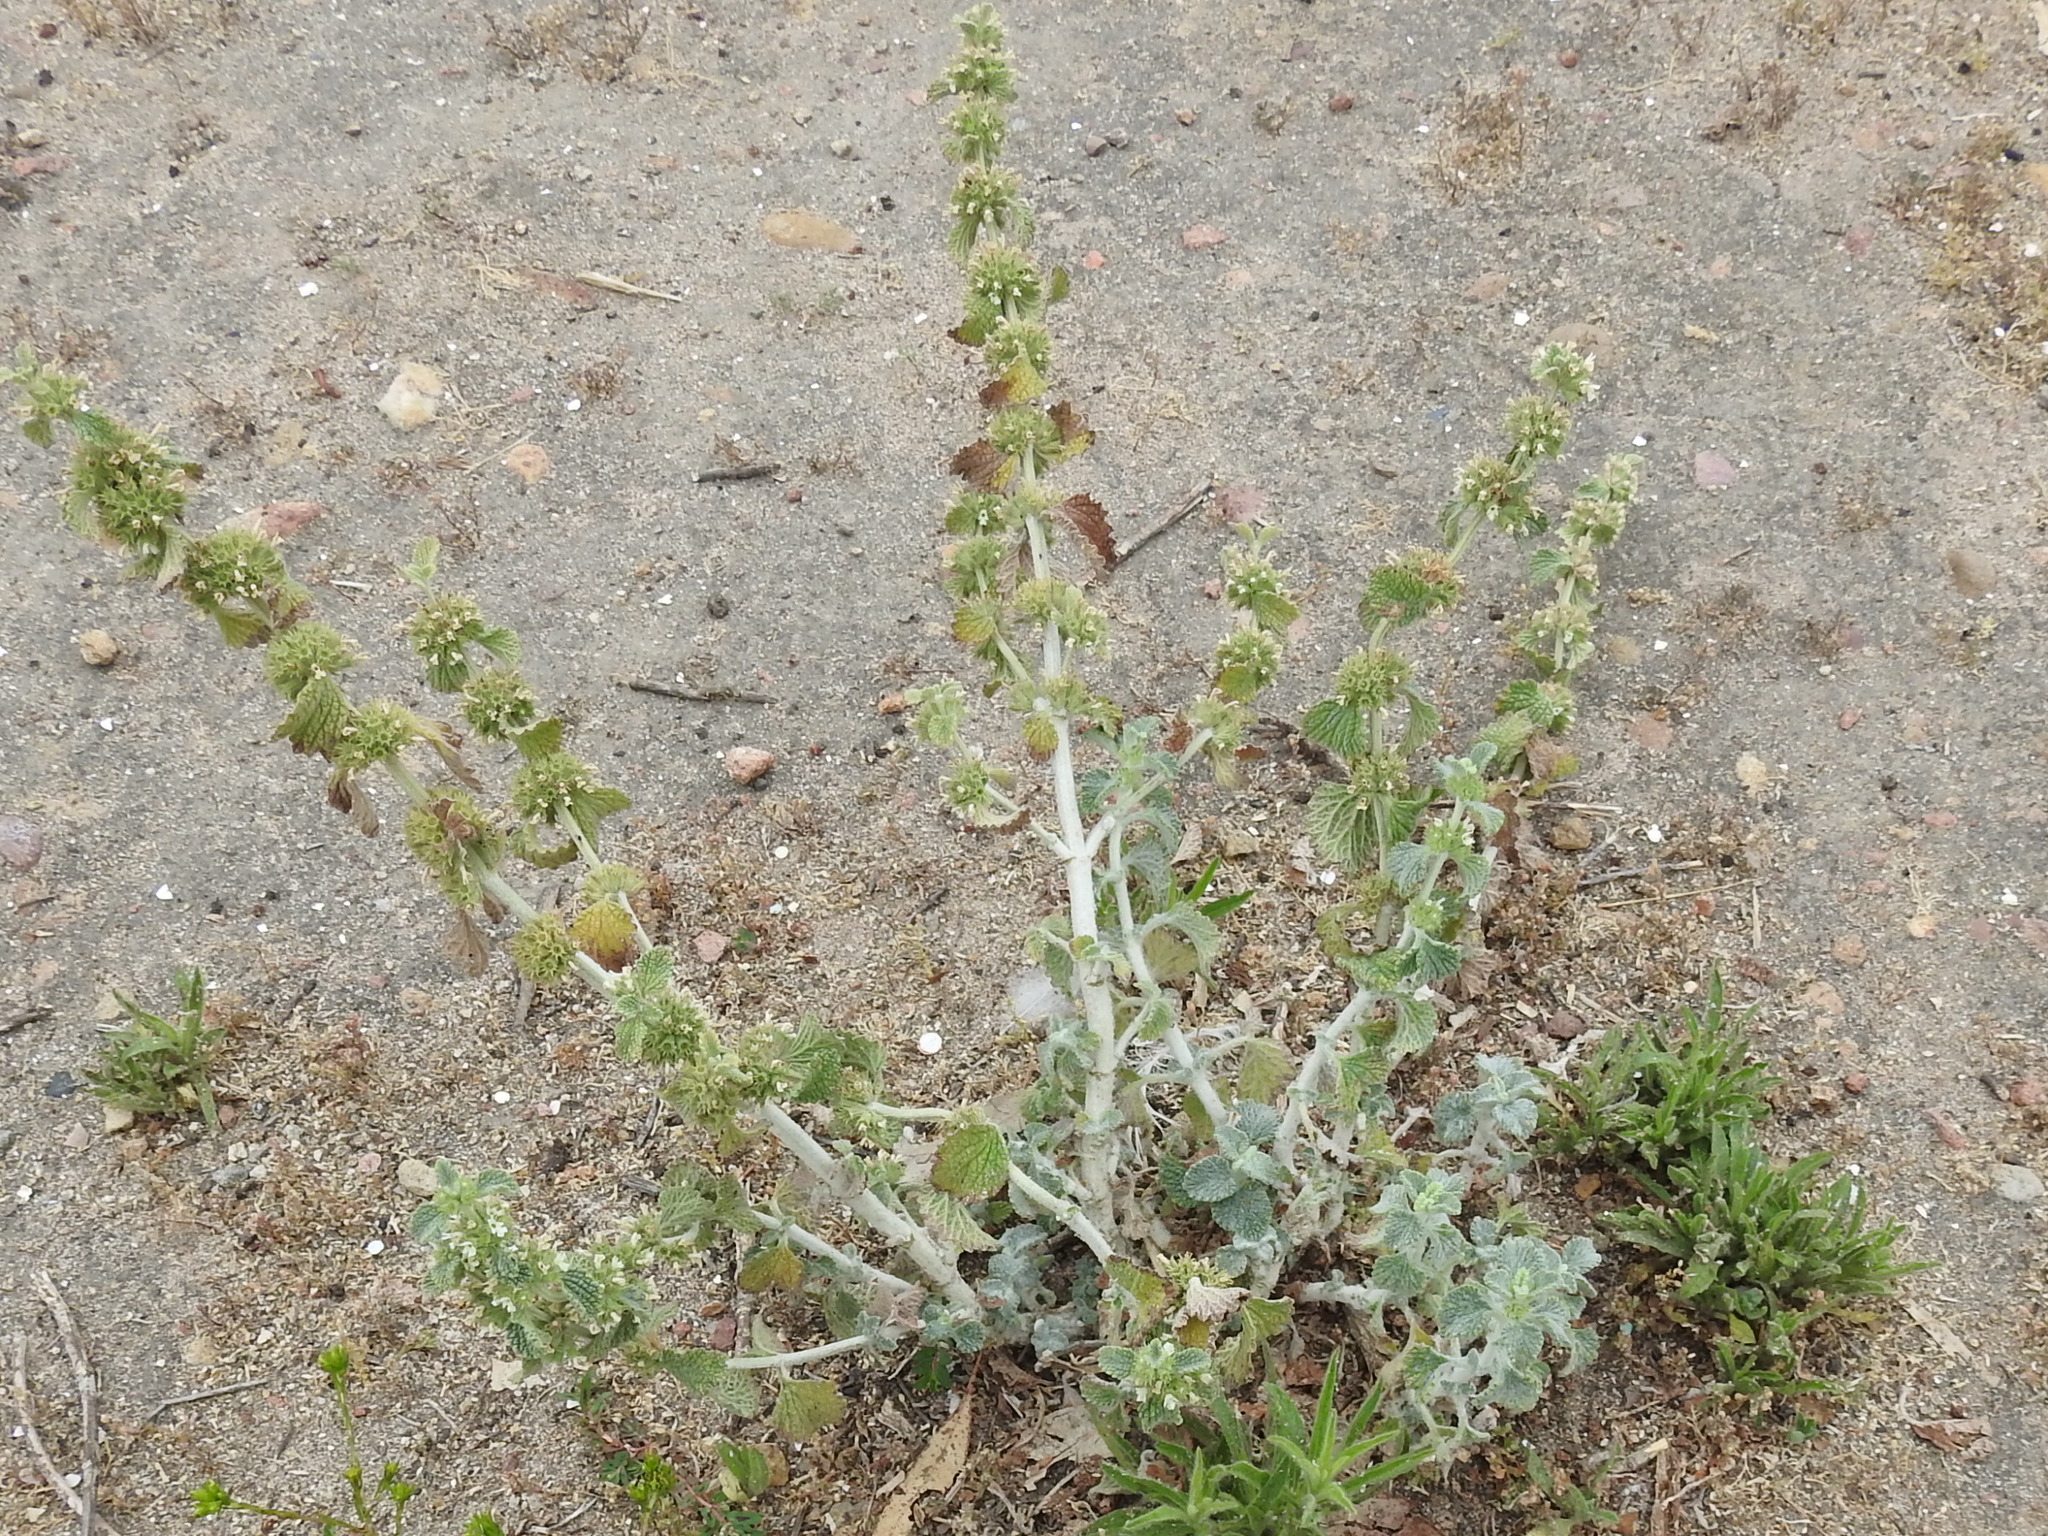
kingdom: Plantae
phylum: Tracheophyta
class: Magnoliopsida
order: Lamiales
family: Lamiaceae
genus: Marrubium
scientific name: Marrubium vulgare
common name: Horehound
